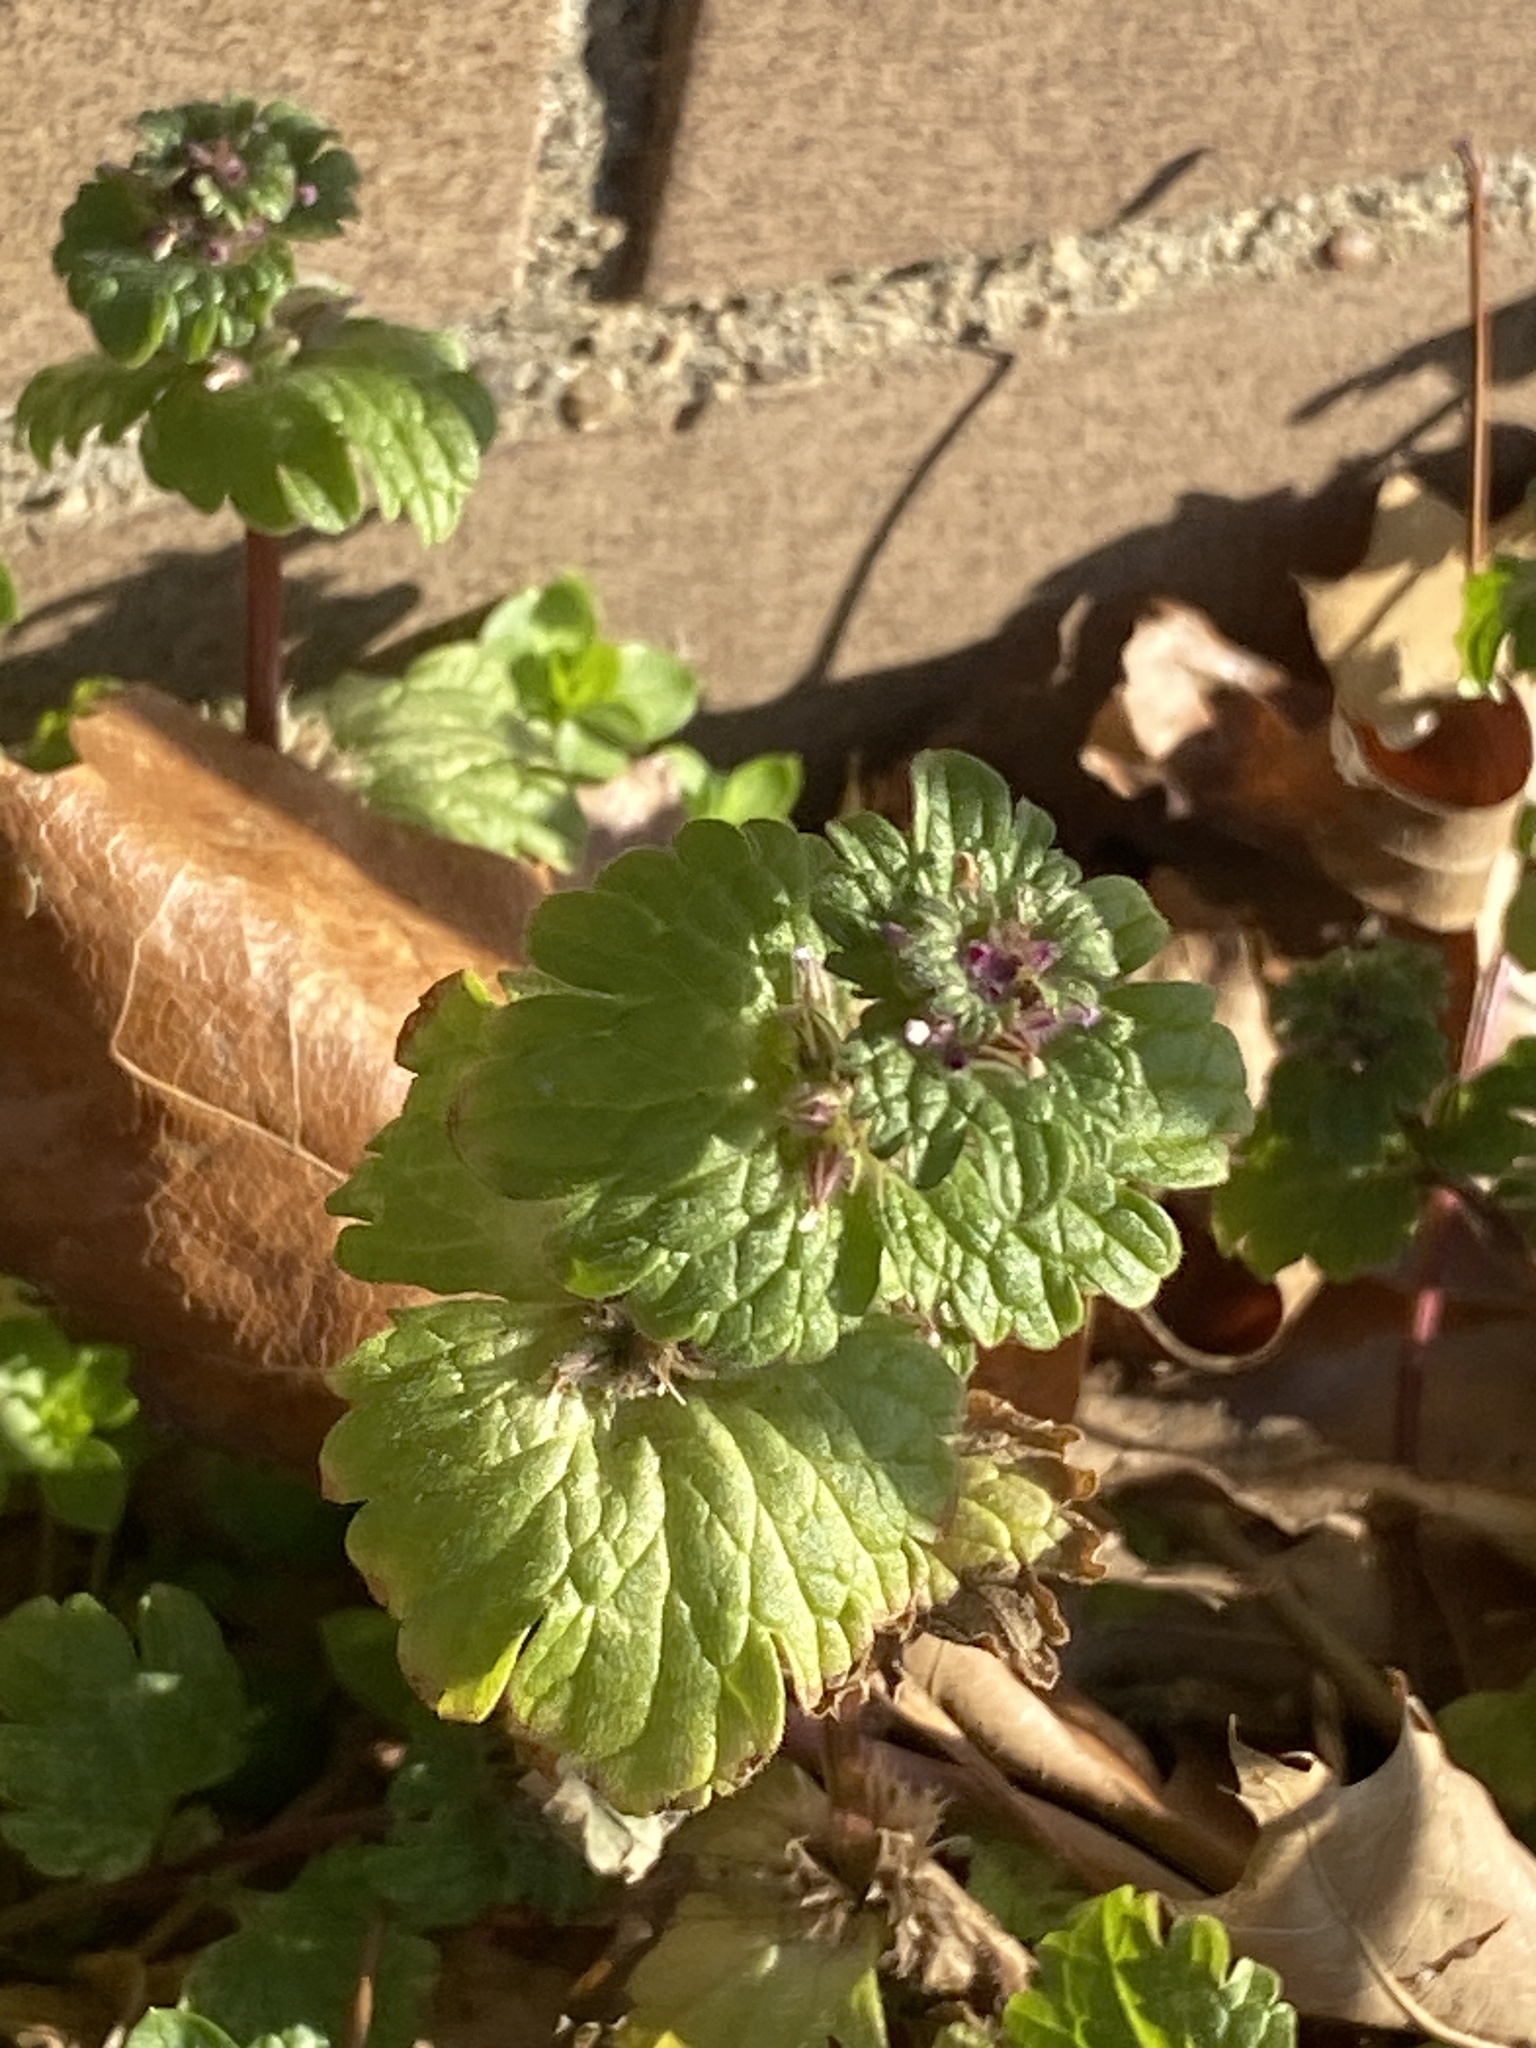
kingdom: Plantae
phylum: Tracheophyta
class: Magnoliopsida
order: Lamiales
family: Lamiaceae
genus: Lamium
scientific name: Lamium amplexicaule
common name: Henbit dead-nettle
